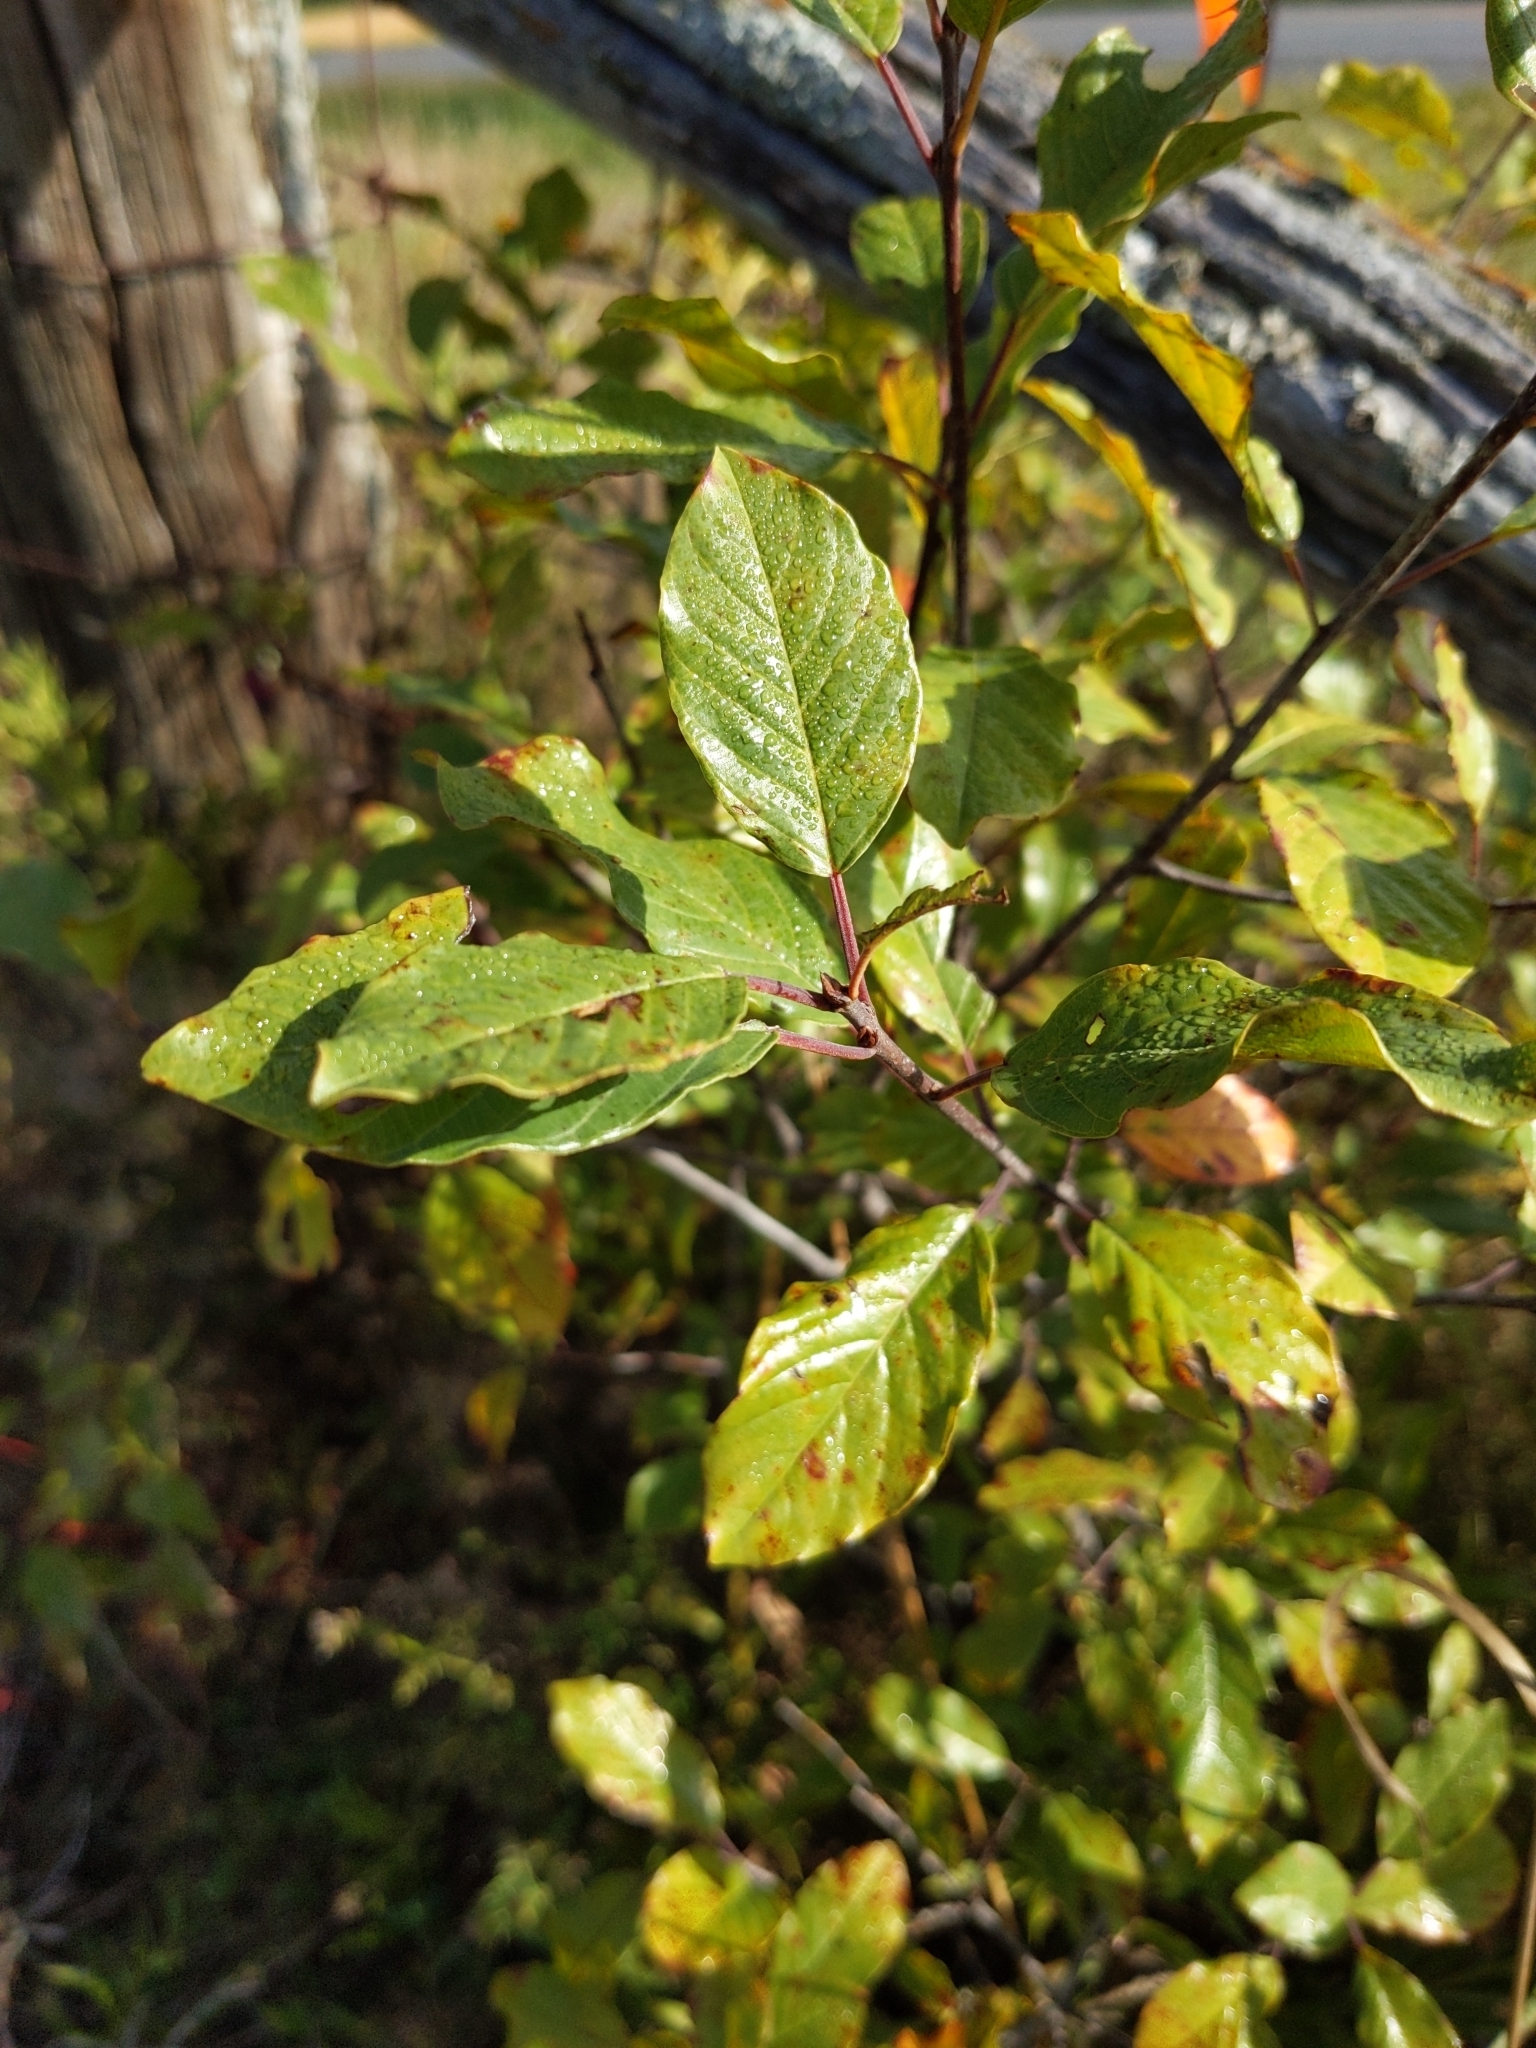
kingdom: Plantae
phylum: Tracheophyta
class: Magnoliopsida
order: Rosales
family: Rhamnaceae
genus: Frangula
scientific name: Frangula alnus
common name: Alder buckthorn
